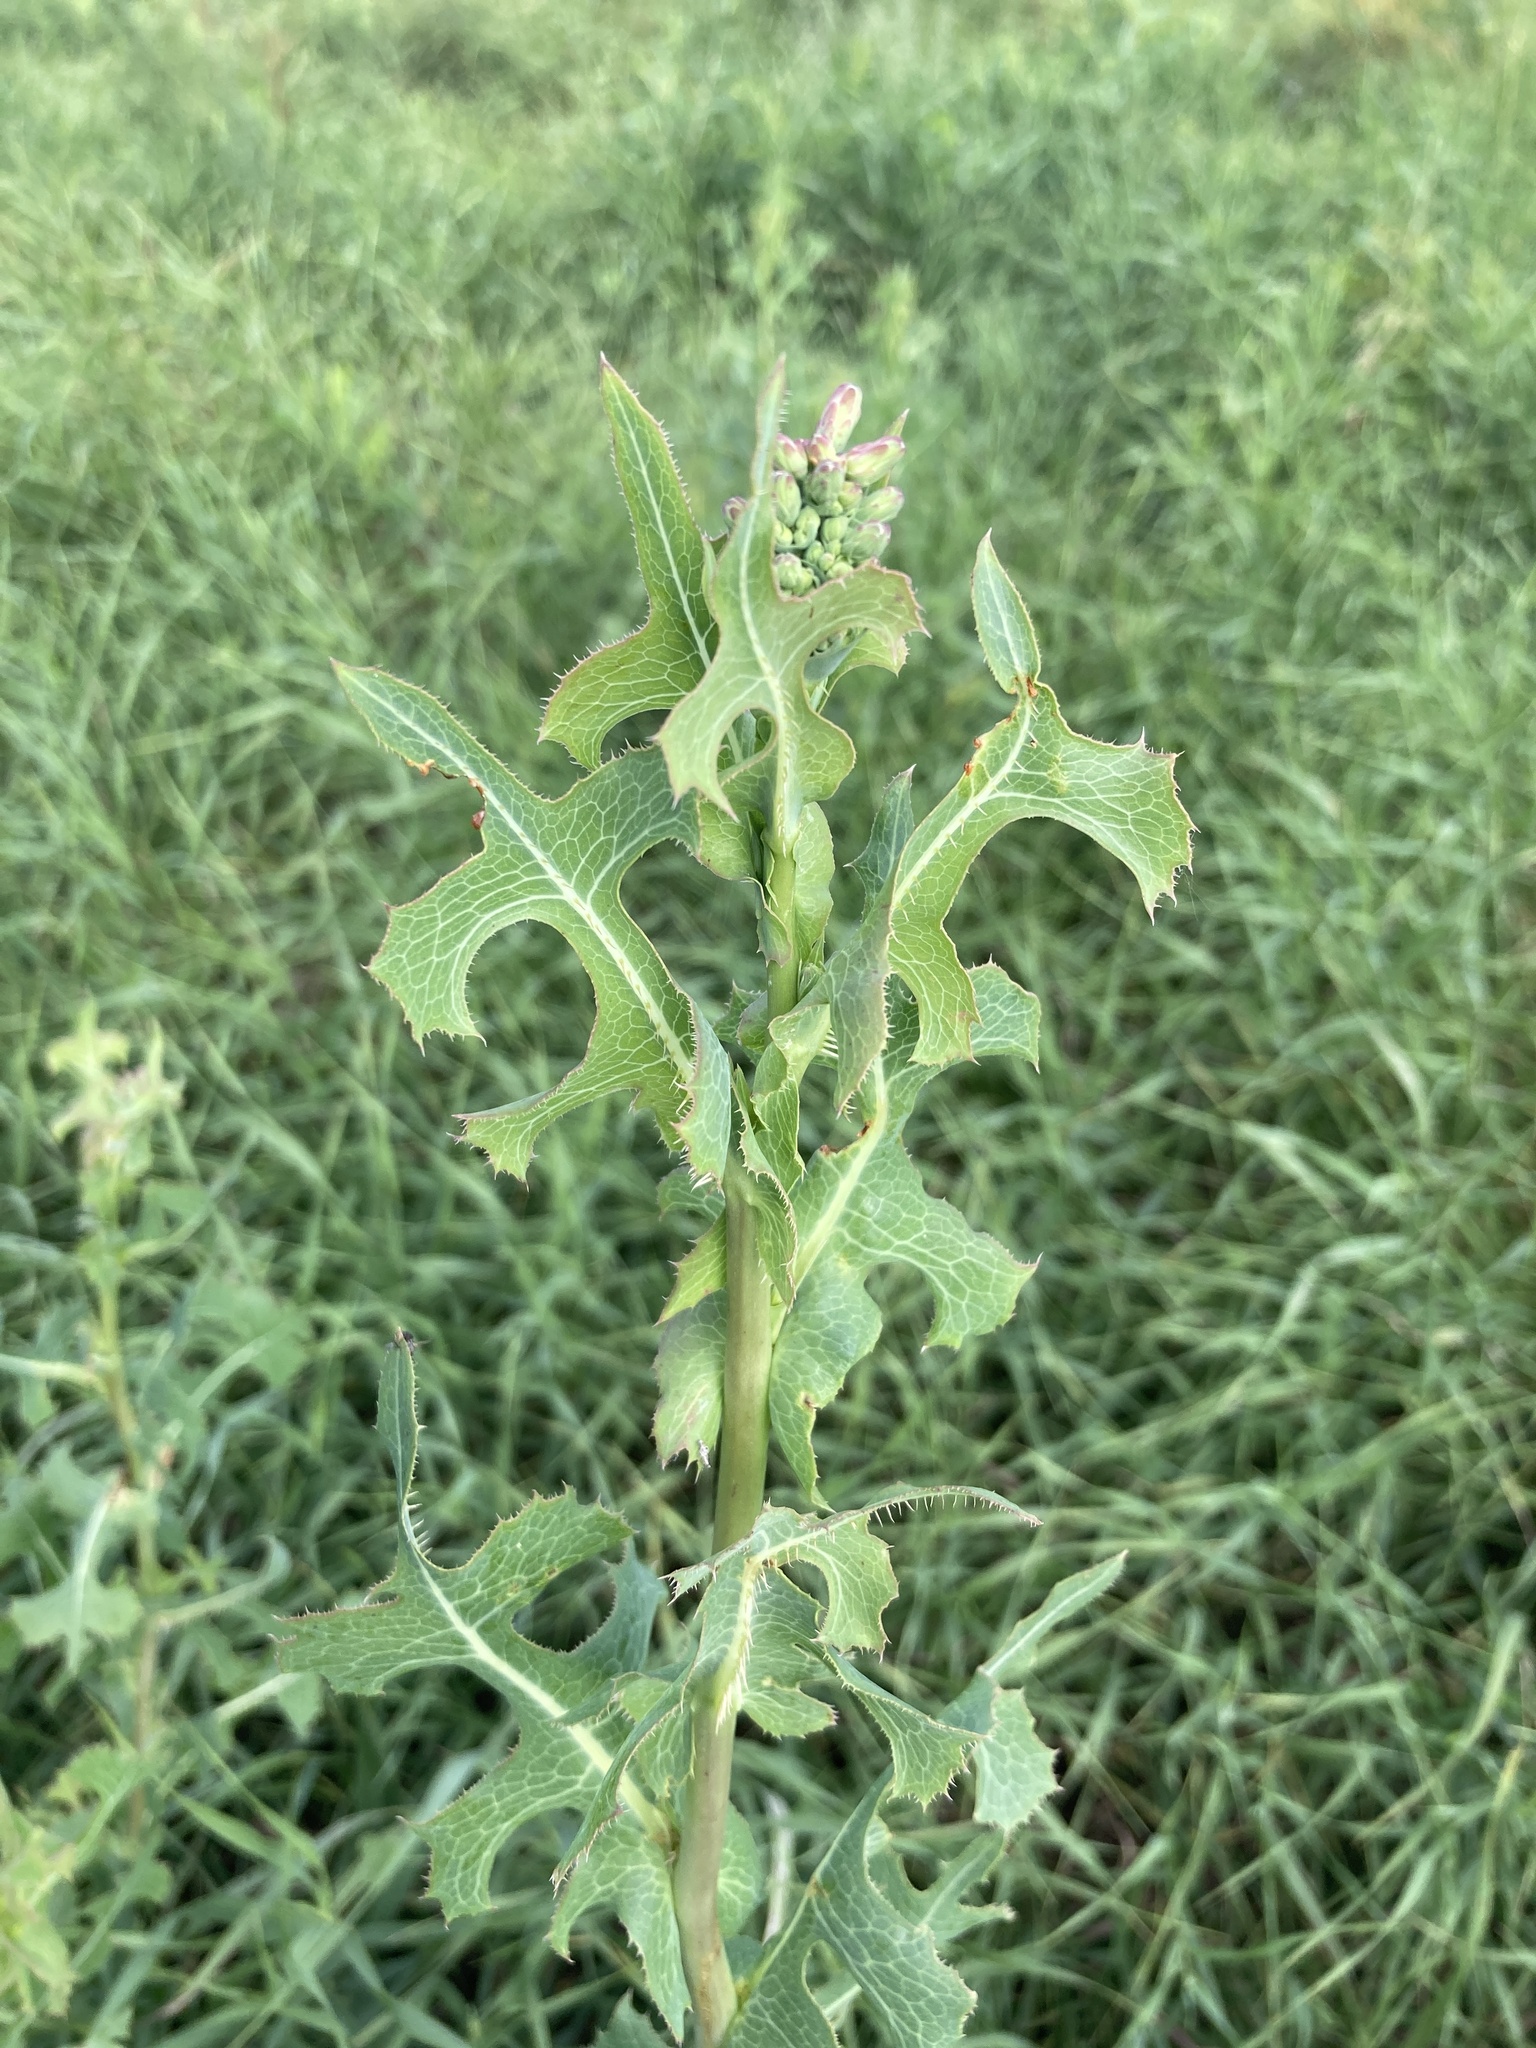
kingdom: Plantae
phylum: Tracheophyta
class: Magnoliopsida
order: Asterales
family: Asteraceae
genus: Lactuca
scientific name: Lactuca serriola
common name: Prickly lettuce
